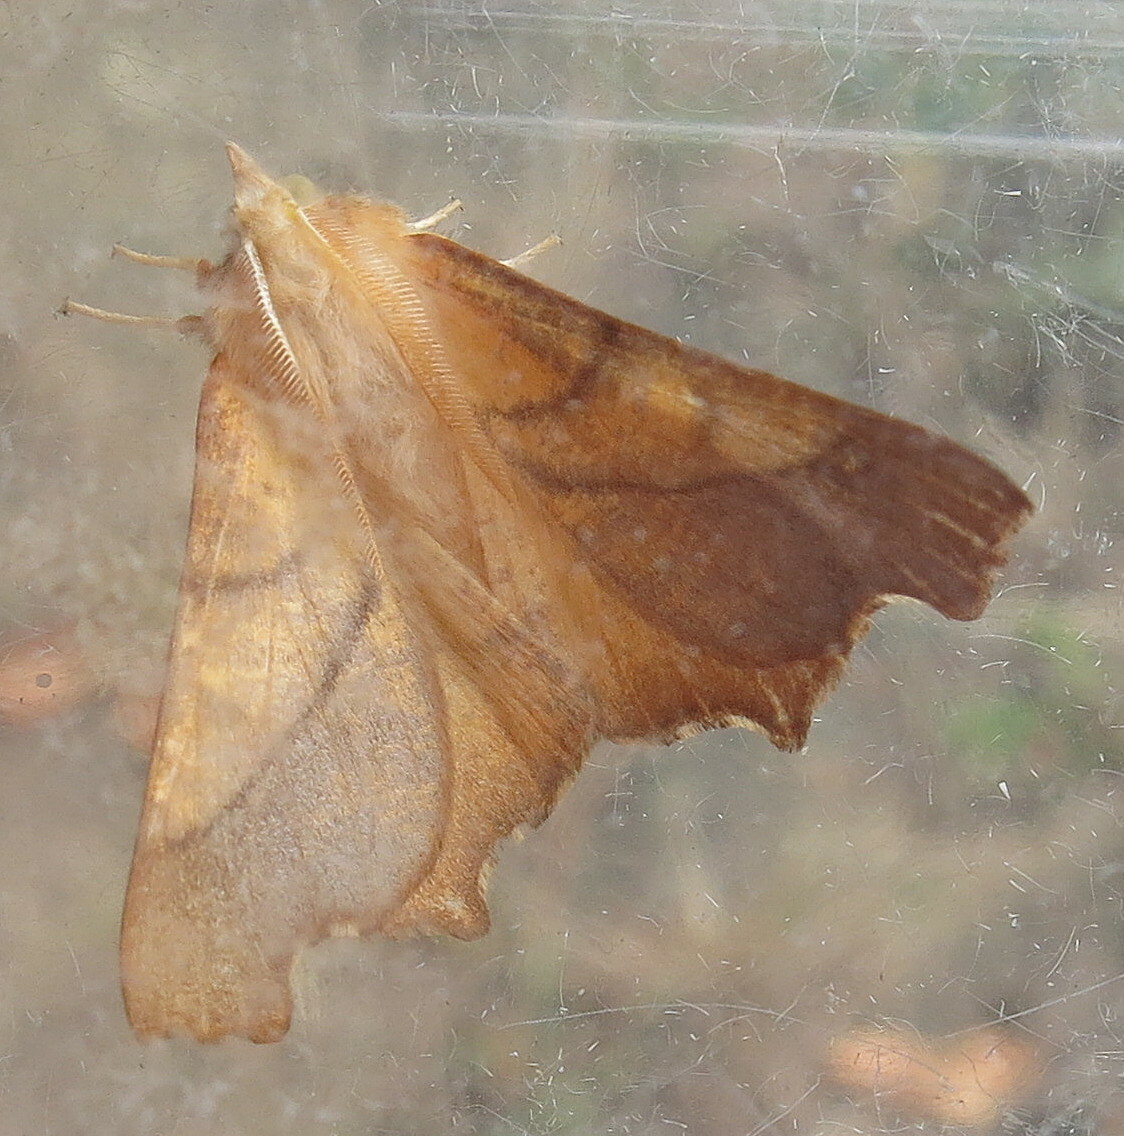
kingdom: Animalia
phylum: Arthropoda
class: Insecta
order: Lepidoptera
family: Geometridae
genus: Ennomos
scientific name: Ennomos fuscantaria
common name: Dusky thorn
